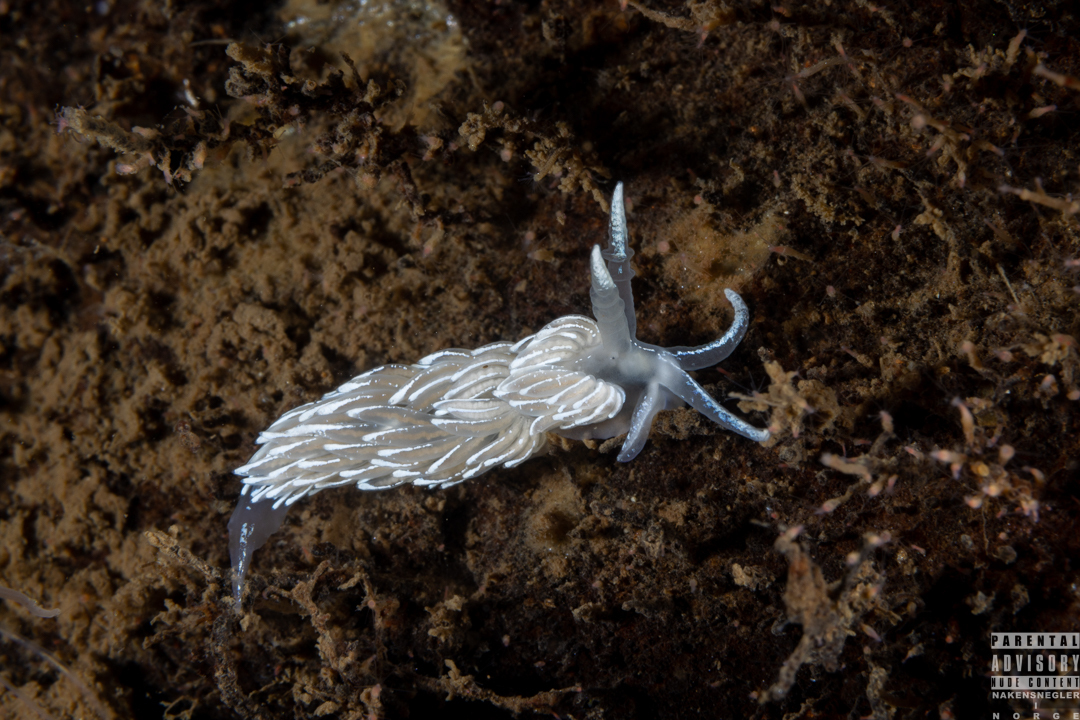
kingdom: Animalia
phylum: Mollusca
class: Gastropoda
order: Nudibranchia
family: Facelinidae
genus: Favorinus
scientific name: Favorinus blianus
